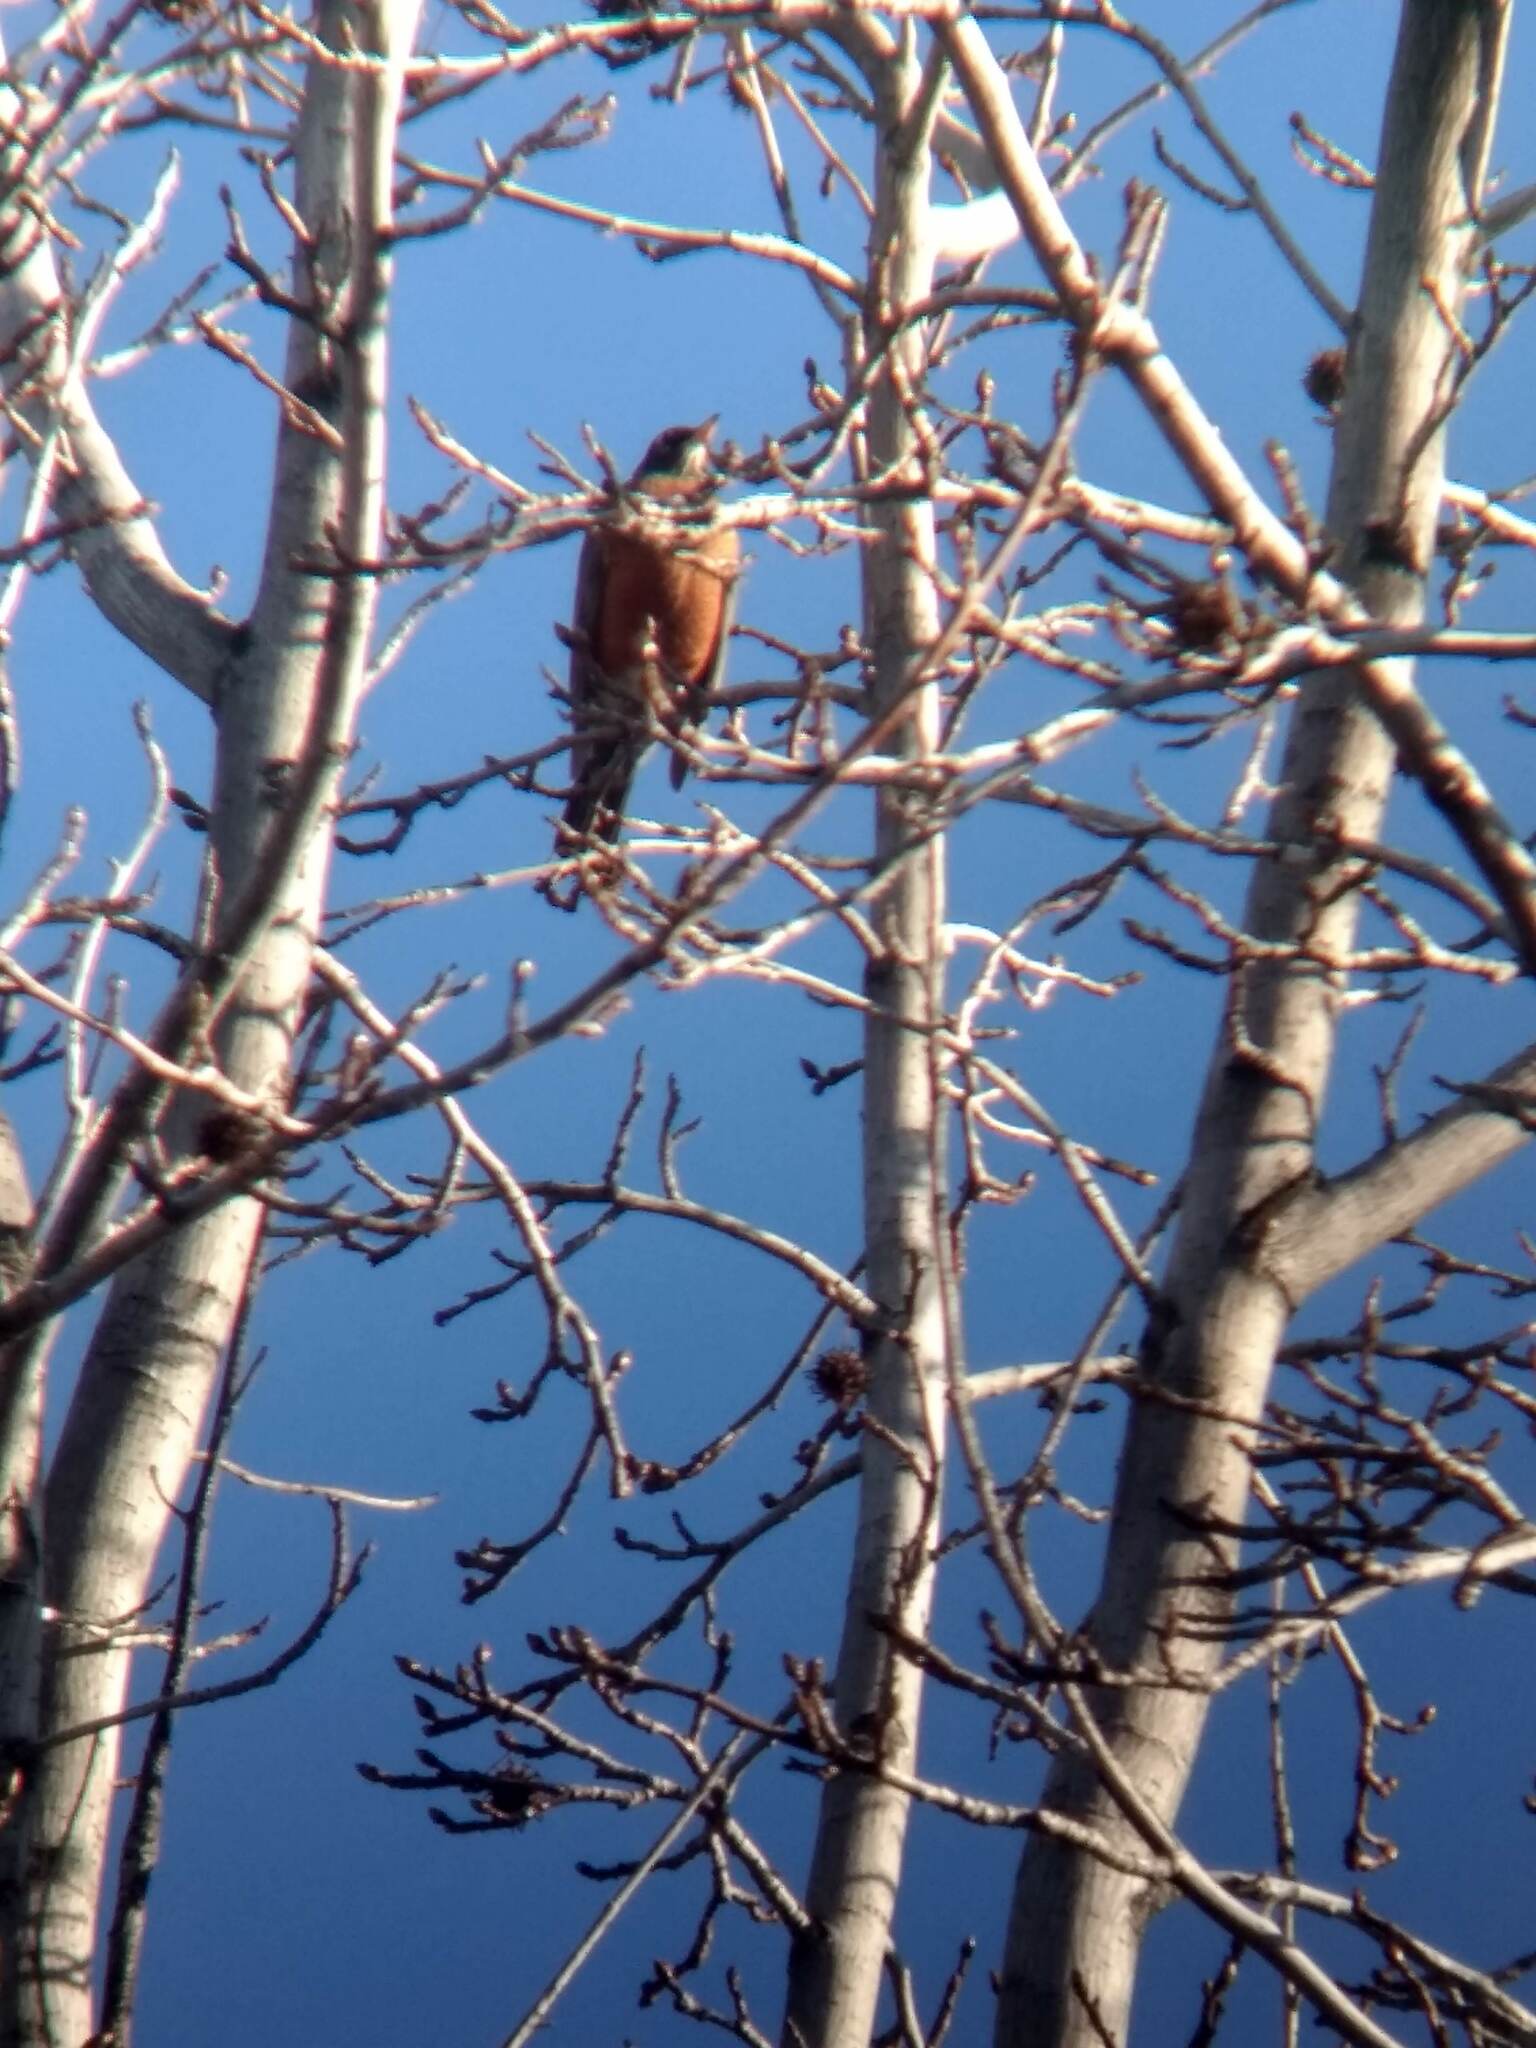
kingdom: Animalia
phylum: Chordata
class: Aves
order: Passeriformes
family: Turdidae
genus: Turdus
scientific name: Turdus migratorius
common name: American robin
